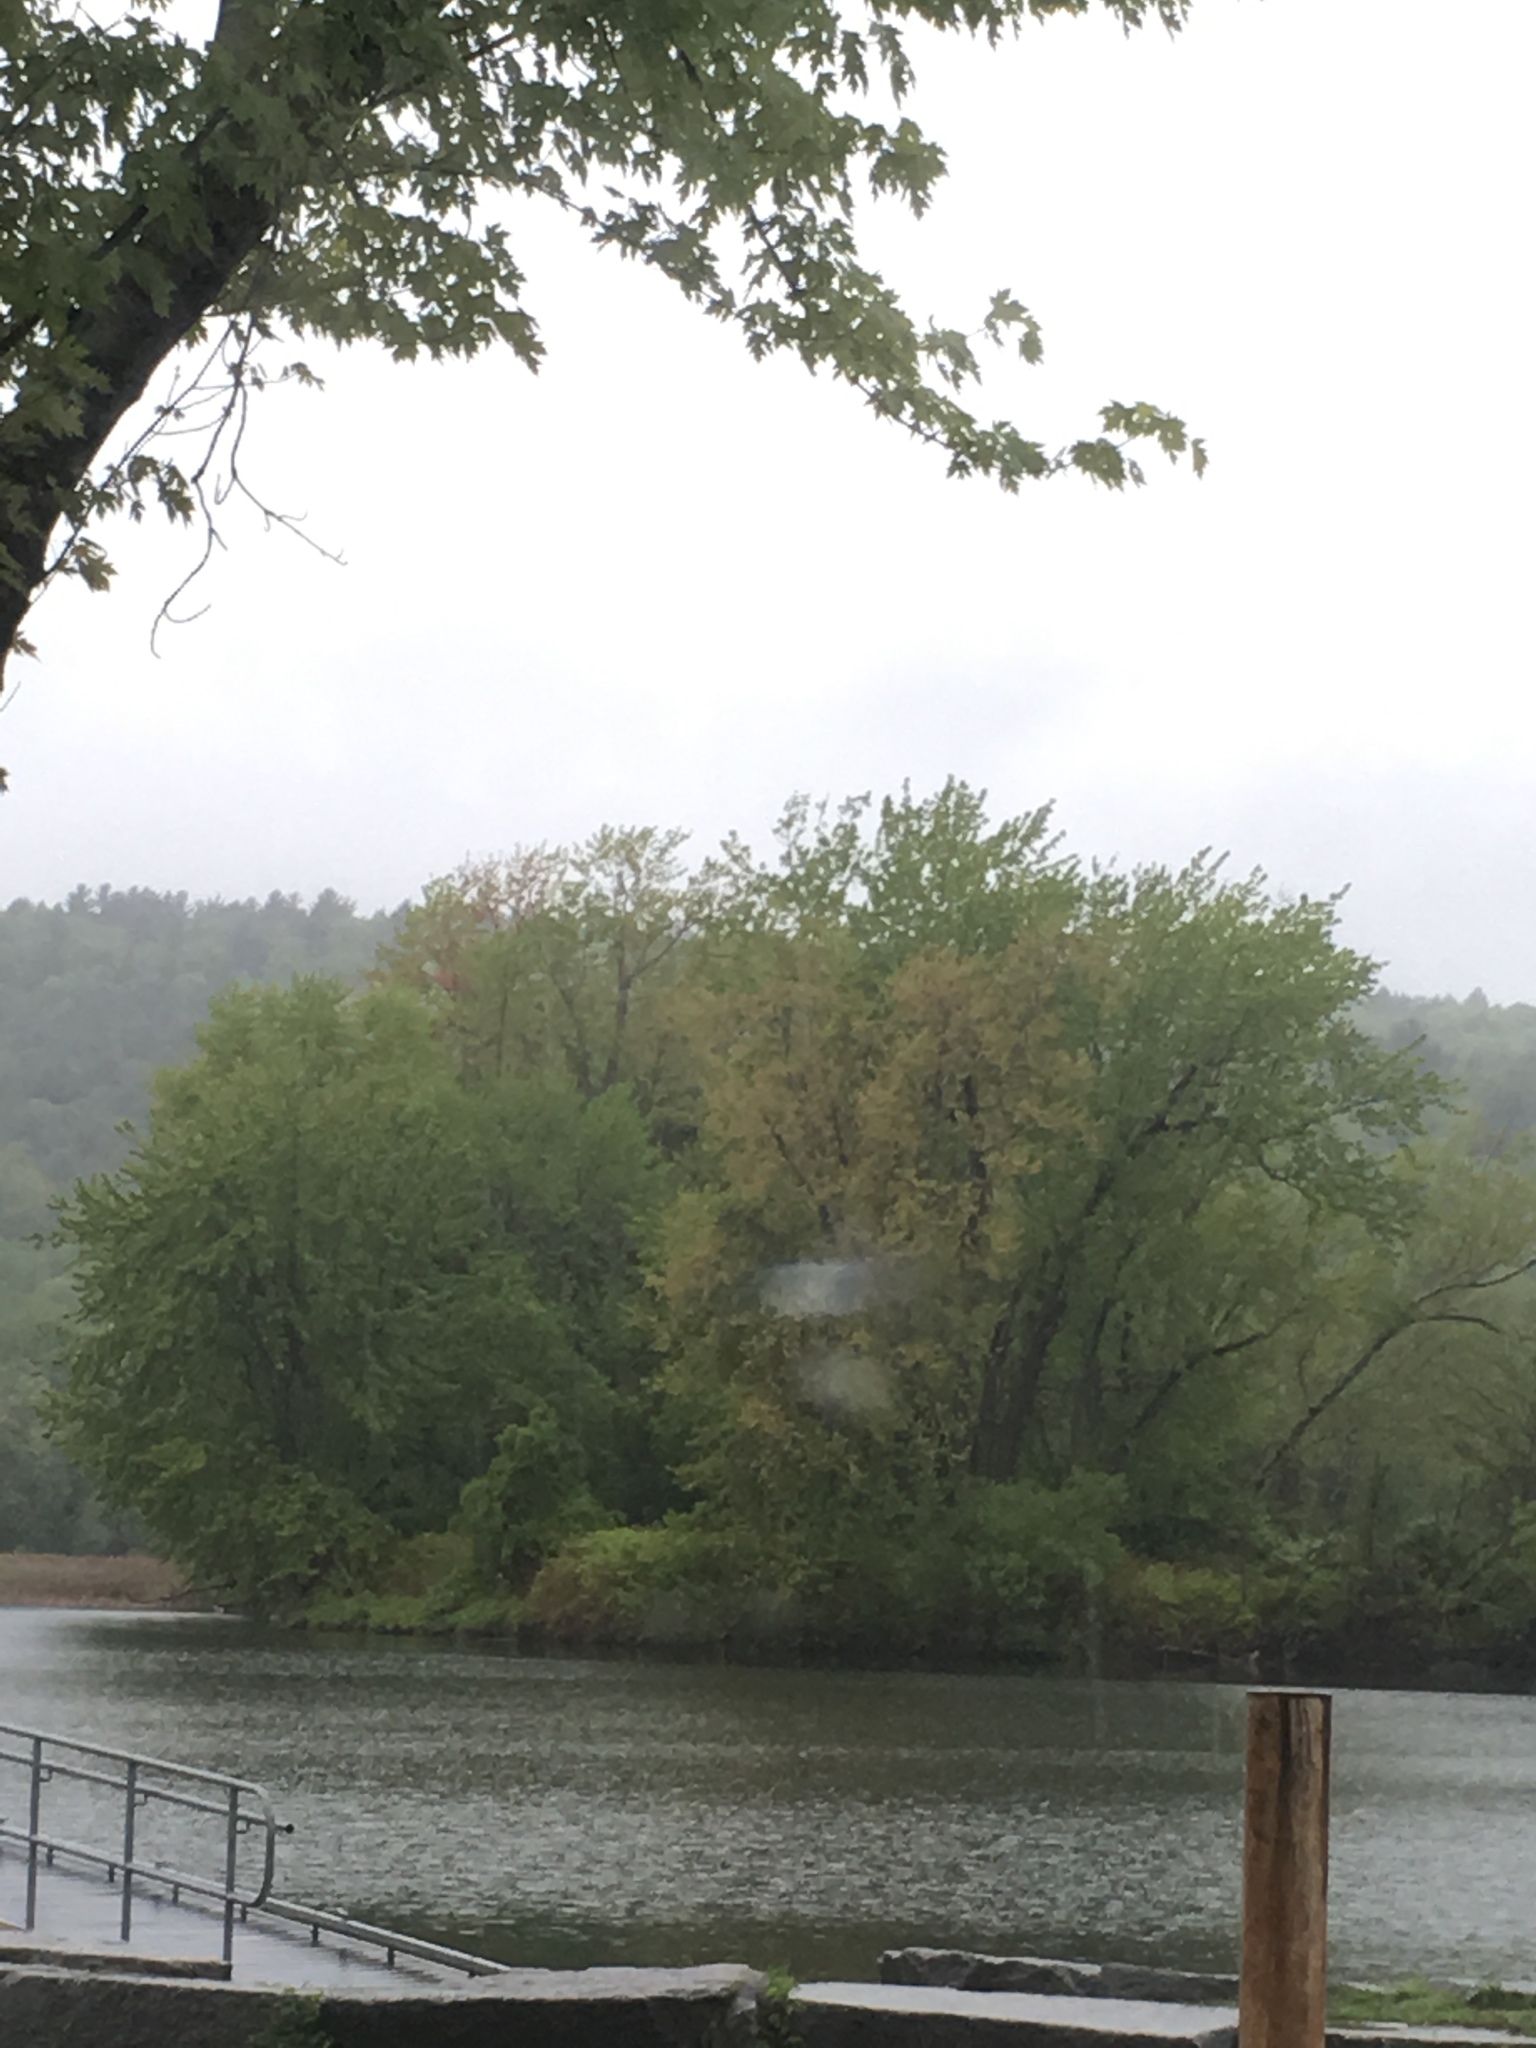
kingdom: Plantae
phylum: Tracheophyta
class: Magnoliopsida
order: Sapindales
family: Sapindaceae
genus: Acer
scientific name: Acer saccharinum
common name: Silver maple
